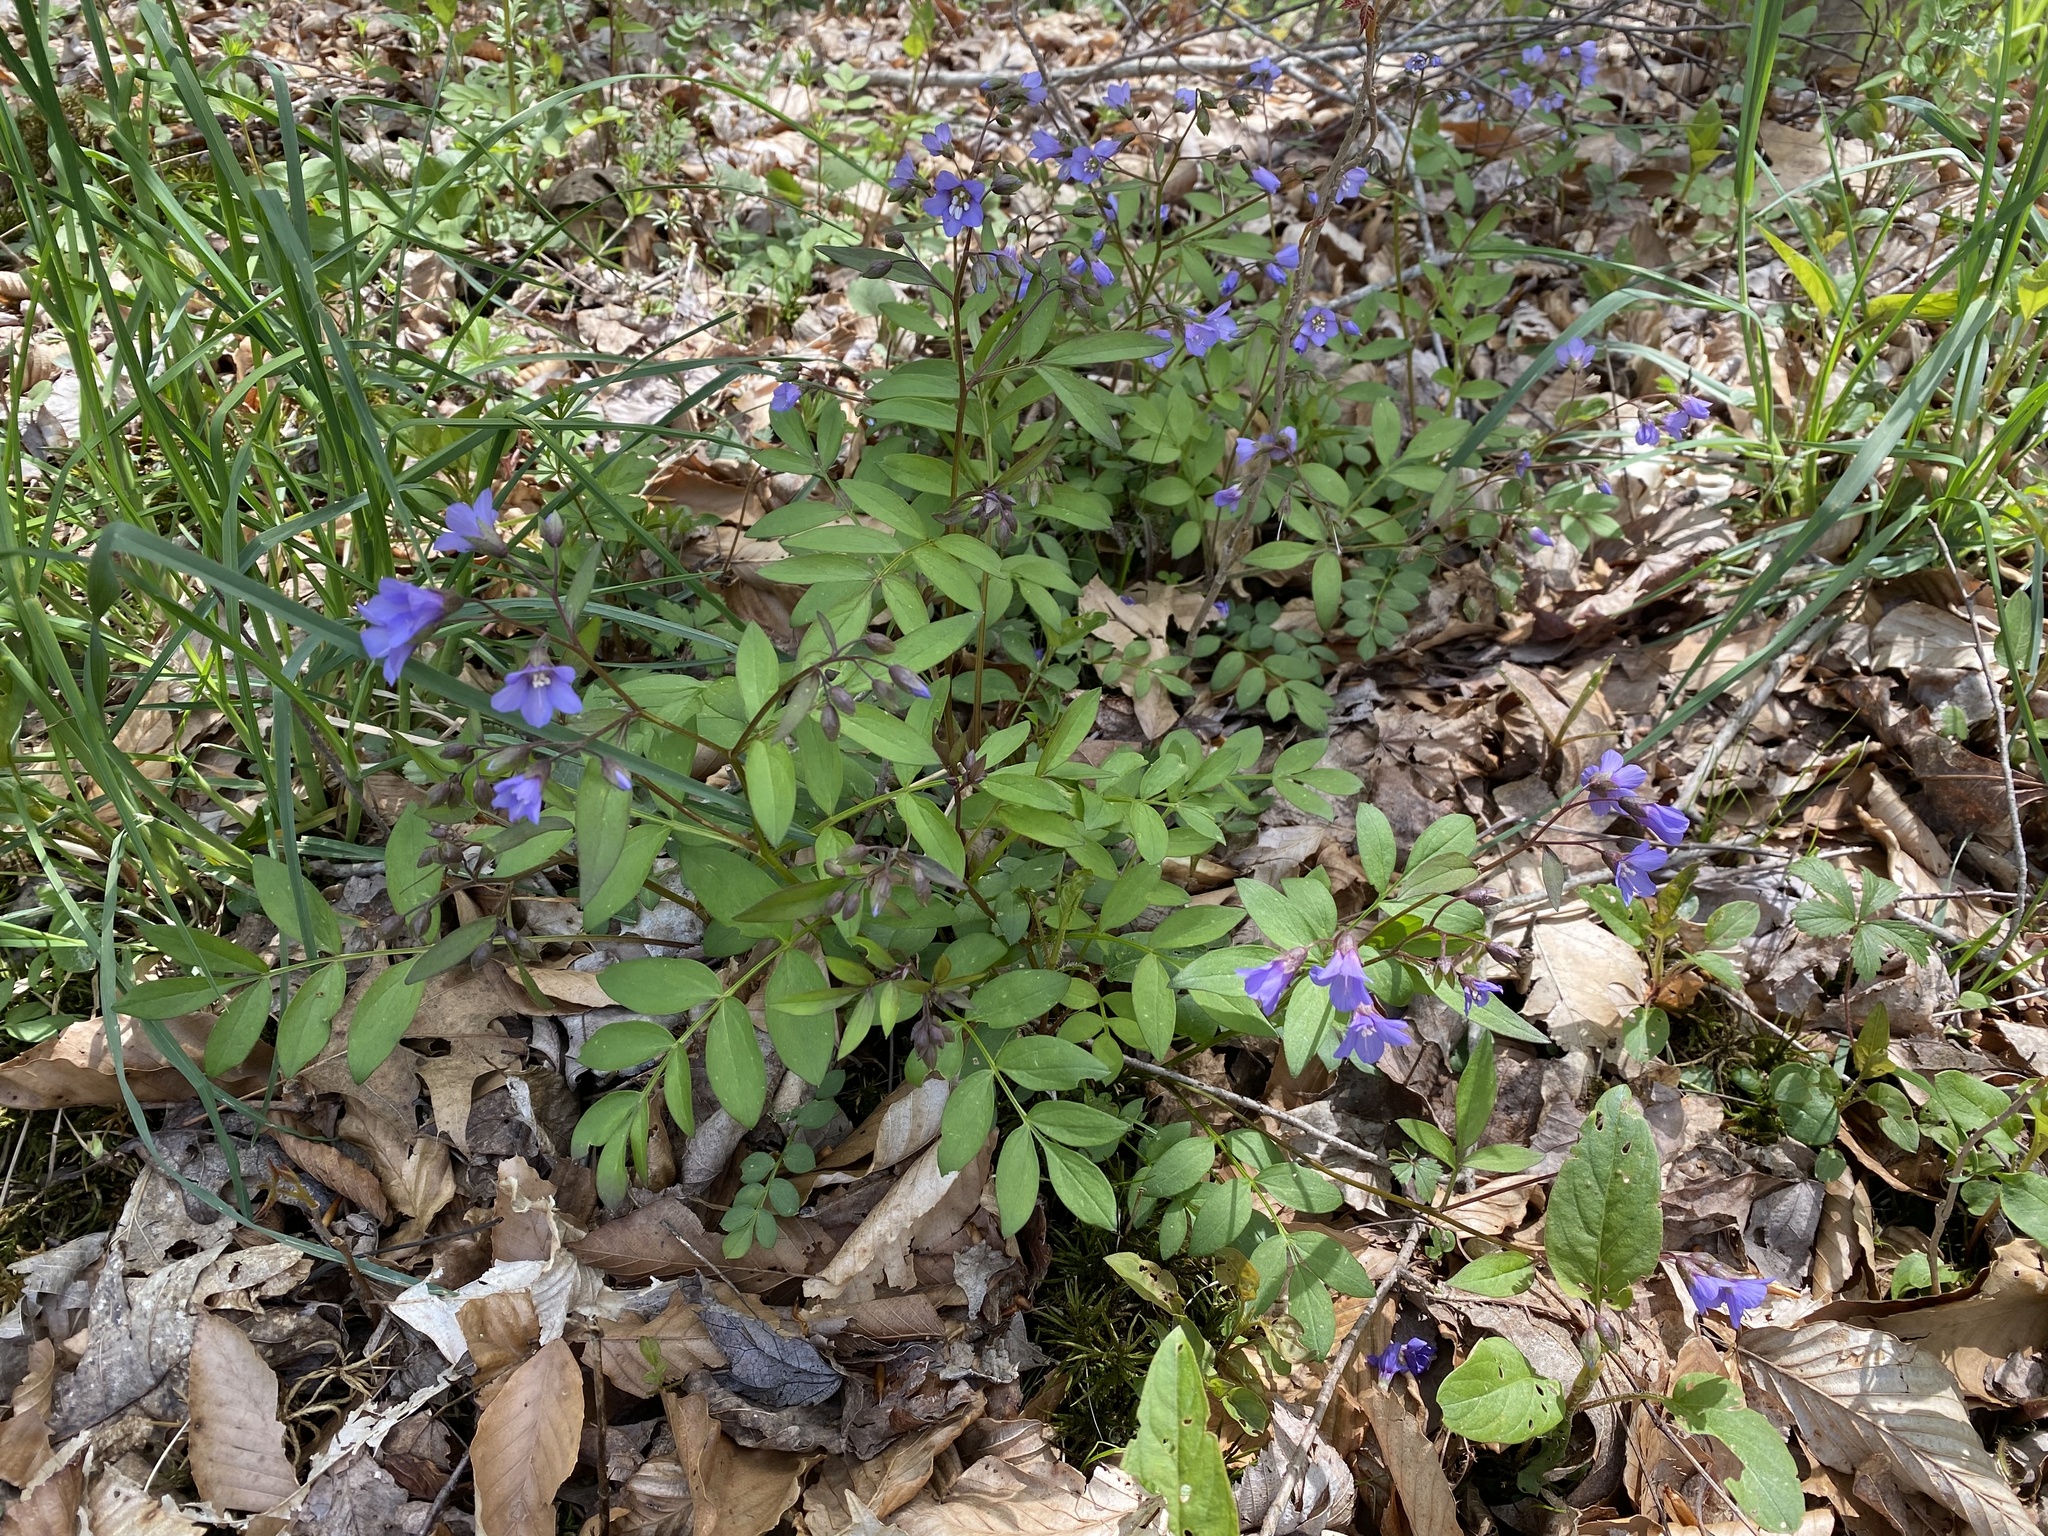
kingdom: Plantae
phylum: Tracheophyta
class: Magnoliopsida
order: Ericales
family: Polemoniaceae
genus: Polemonium
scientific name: Polemonium reptans
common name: Creeping jacob's-ladder
